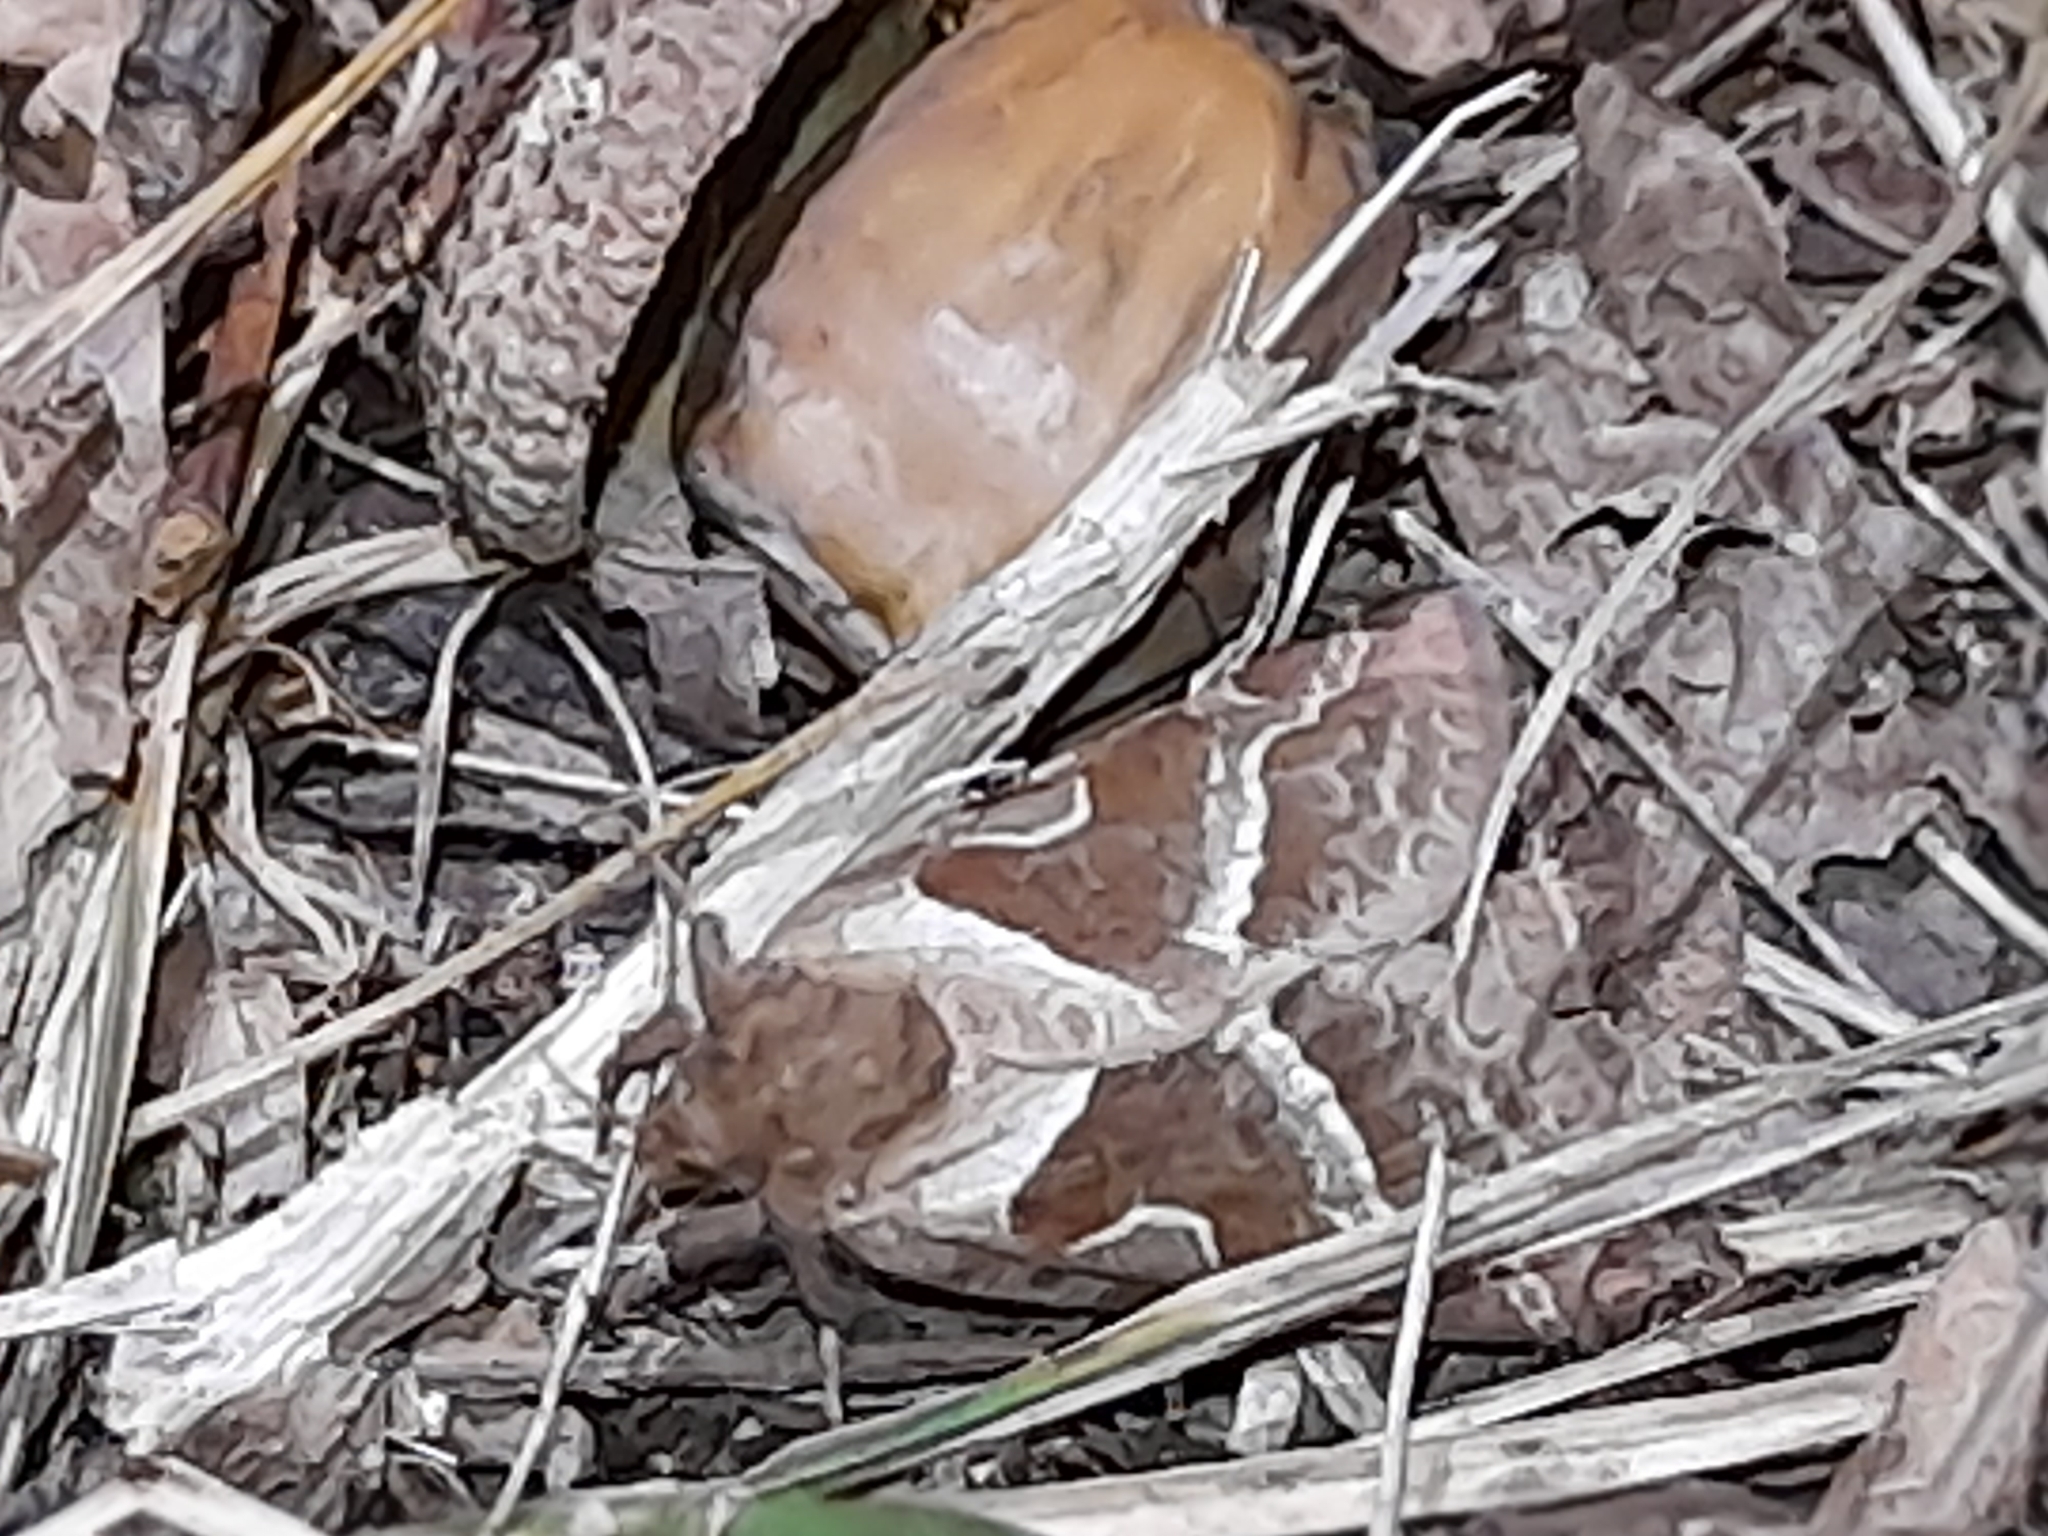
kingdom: Animalia
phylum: Arthropoda
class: Insecta
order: Lepidoptera
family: Hepialidae
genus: Triodia
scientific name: Triodia sylvina
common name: Orange swift
